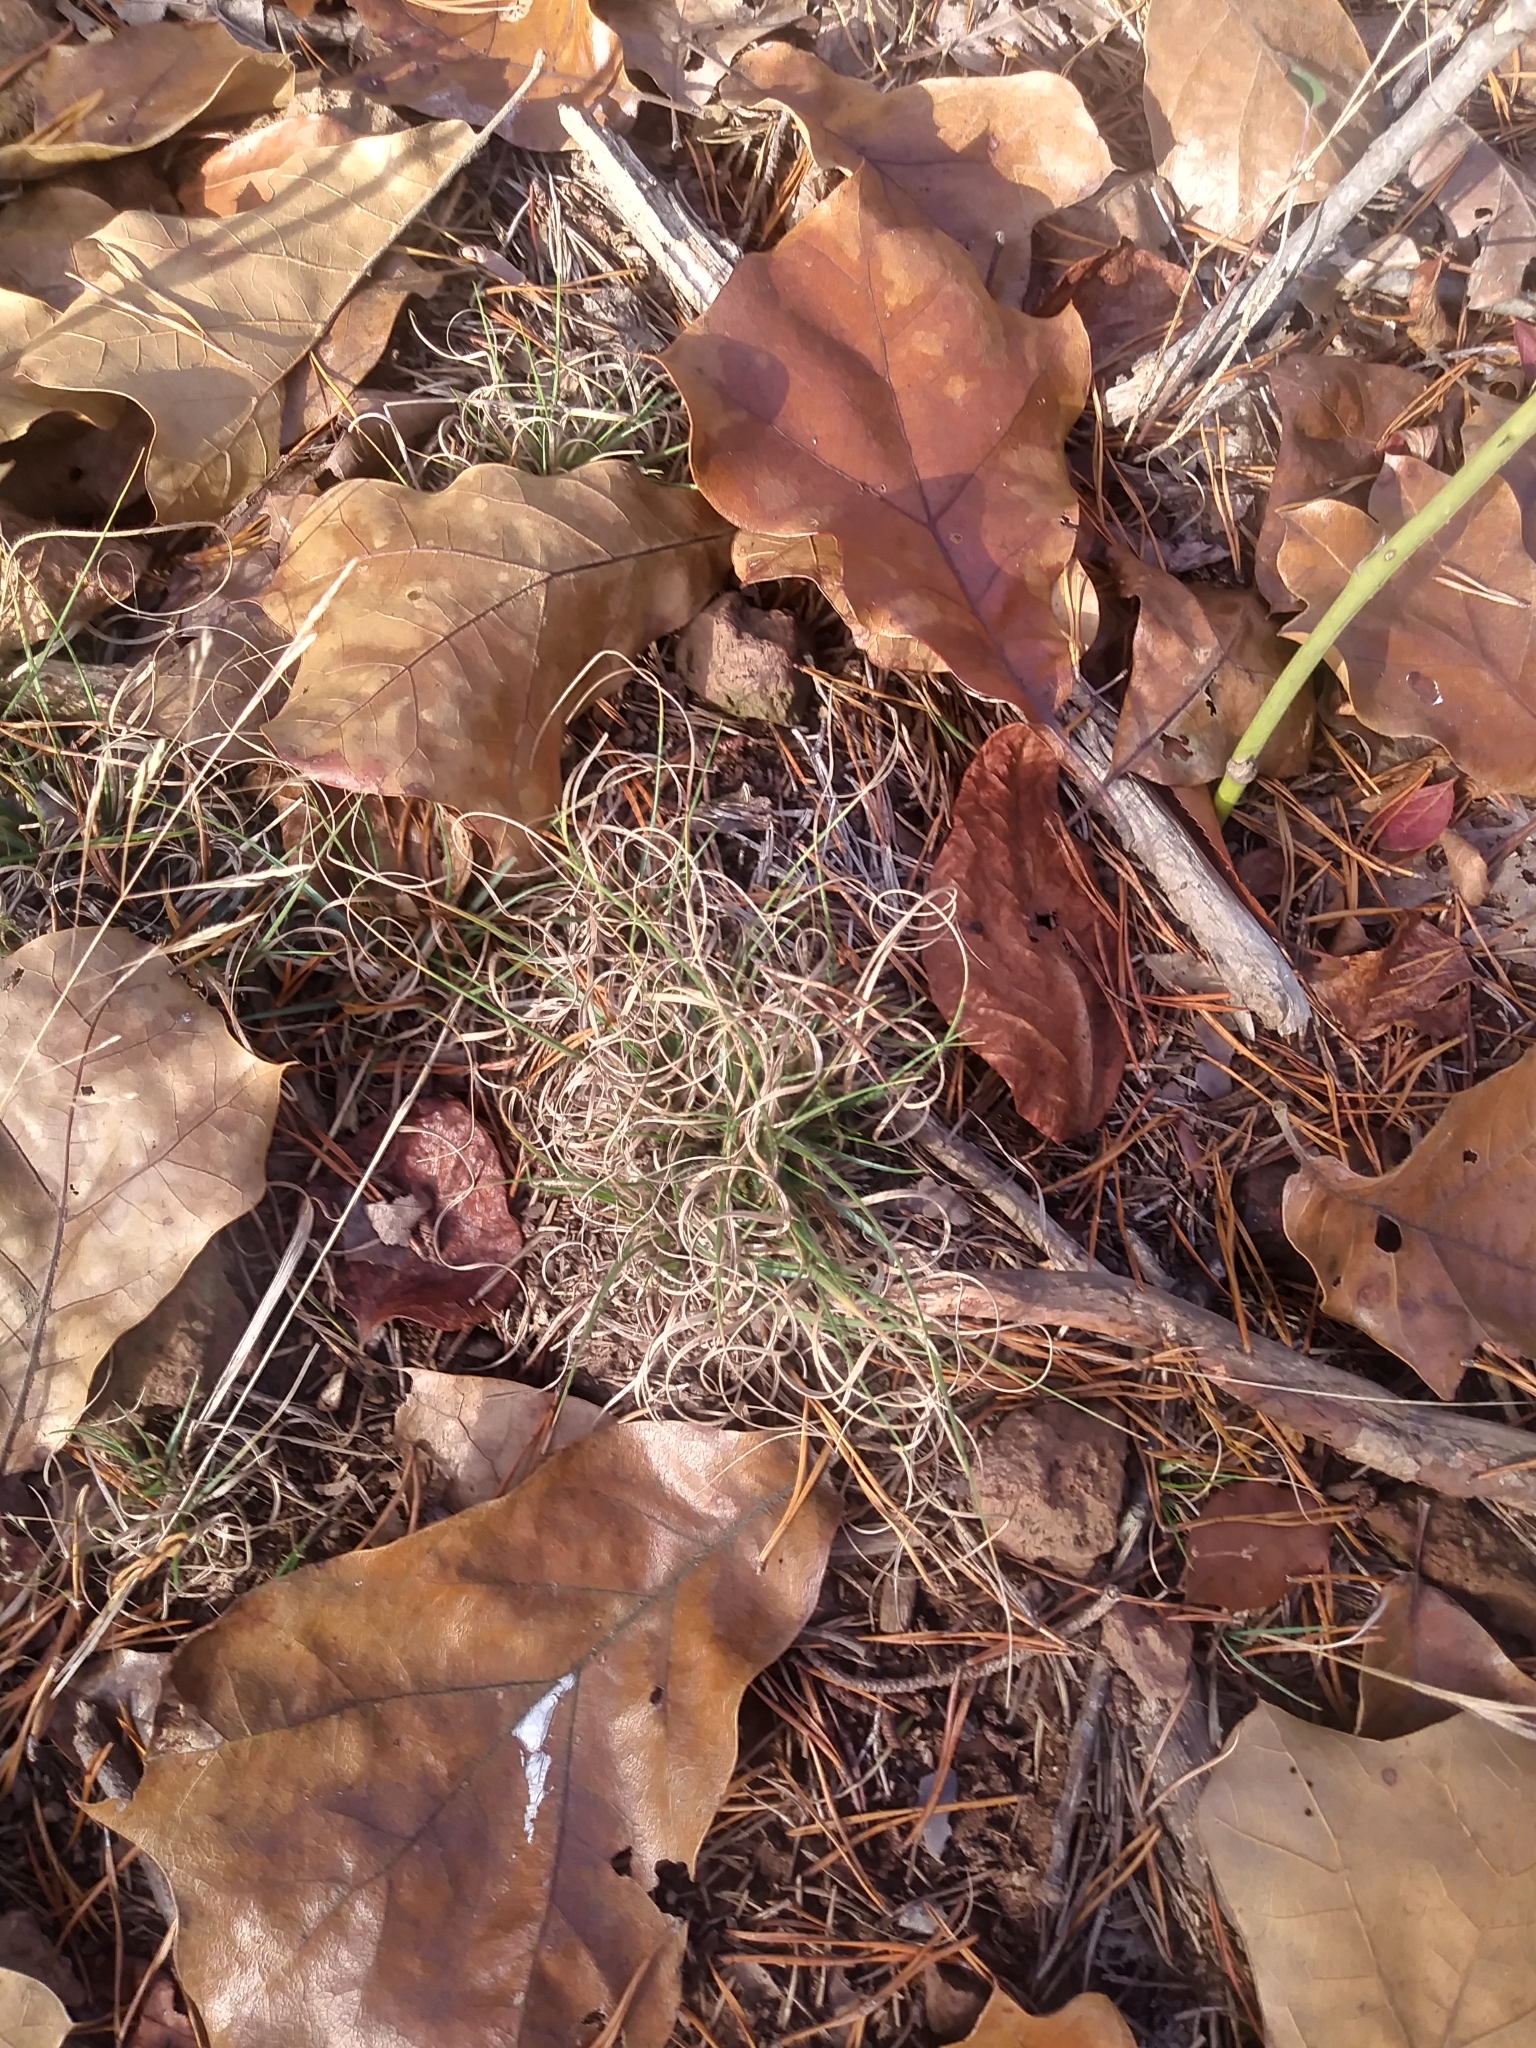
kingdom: Plantae
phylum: Tracheophyta
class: Liliopsida
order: Poales
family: Poaceae
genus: Danthonia
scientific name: Danthonia spicata
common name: Common wild oatgrass
